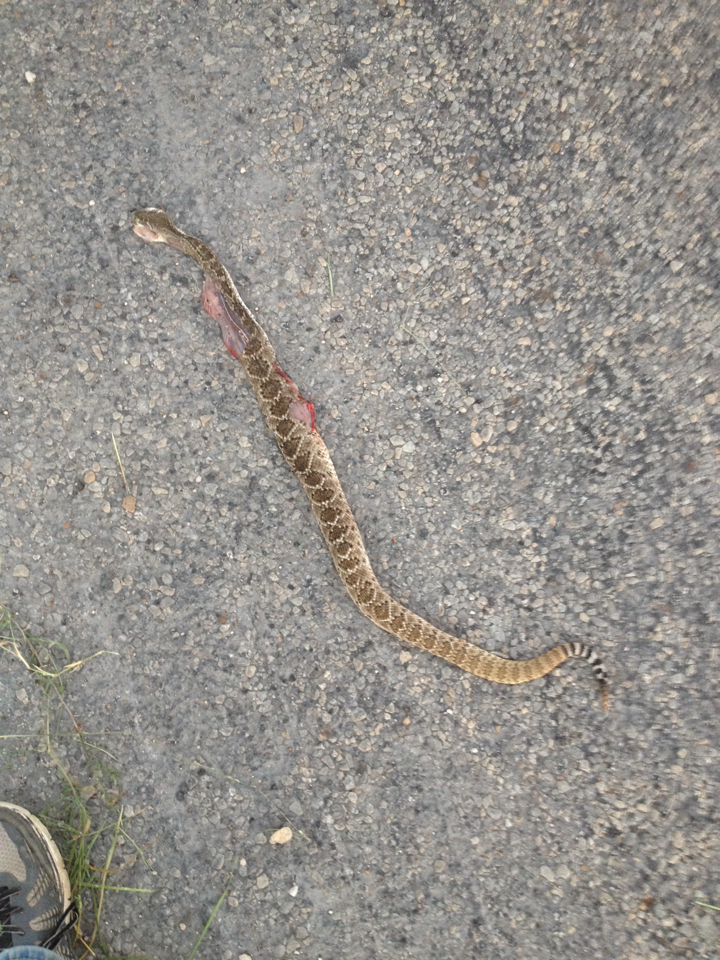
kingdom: Animalia
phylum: Chordata
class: Squamata
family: Viperidae
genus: Crotalus
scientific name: Crotalus atrox
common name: Western diamond-backed rattlesnake
